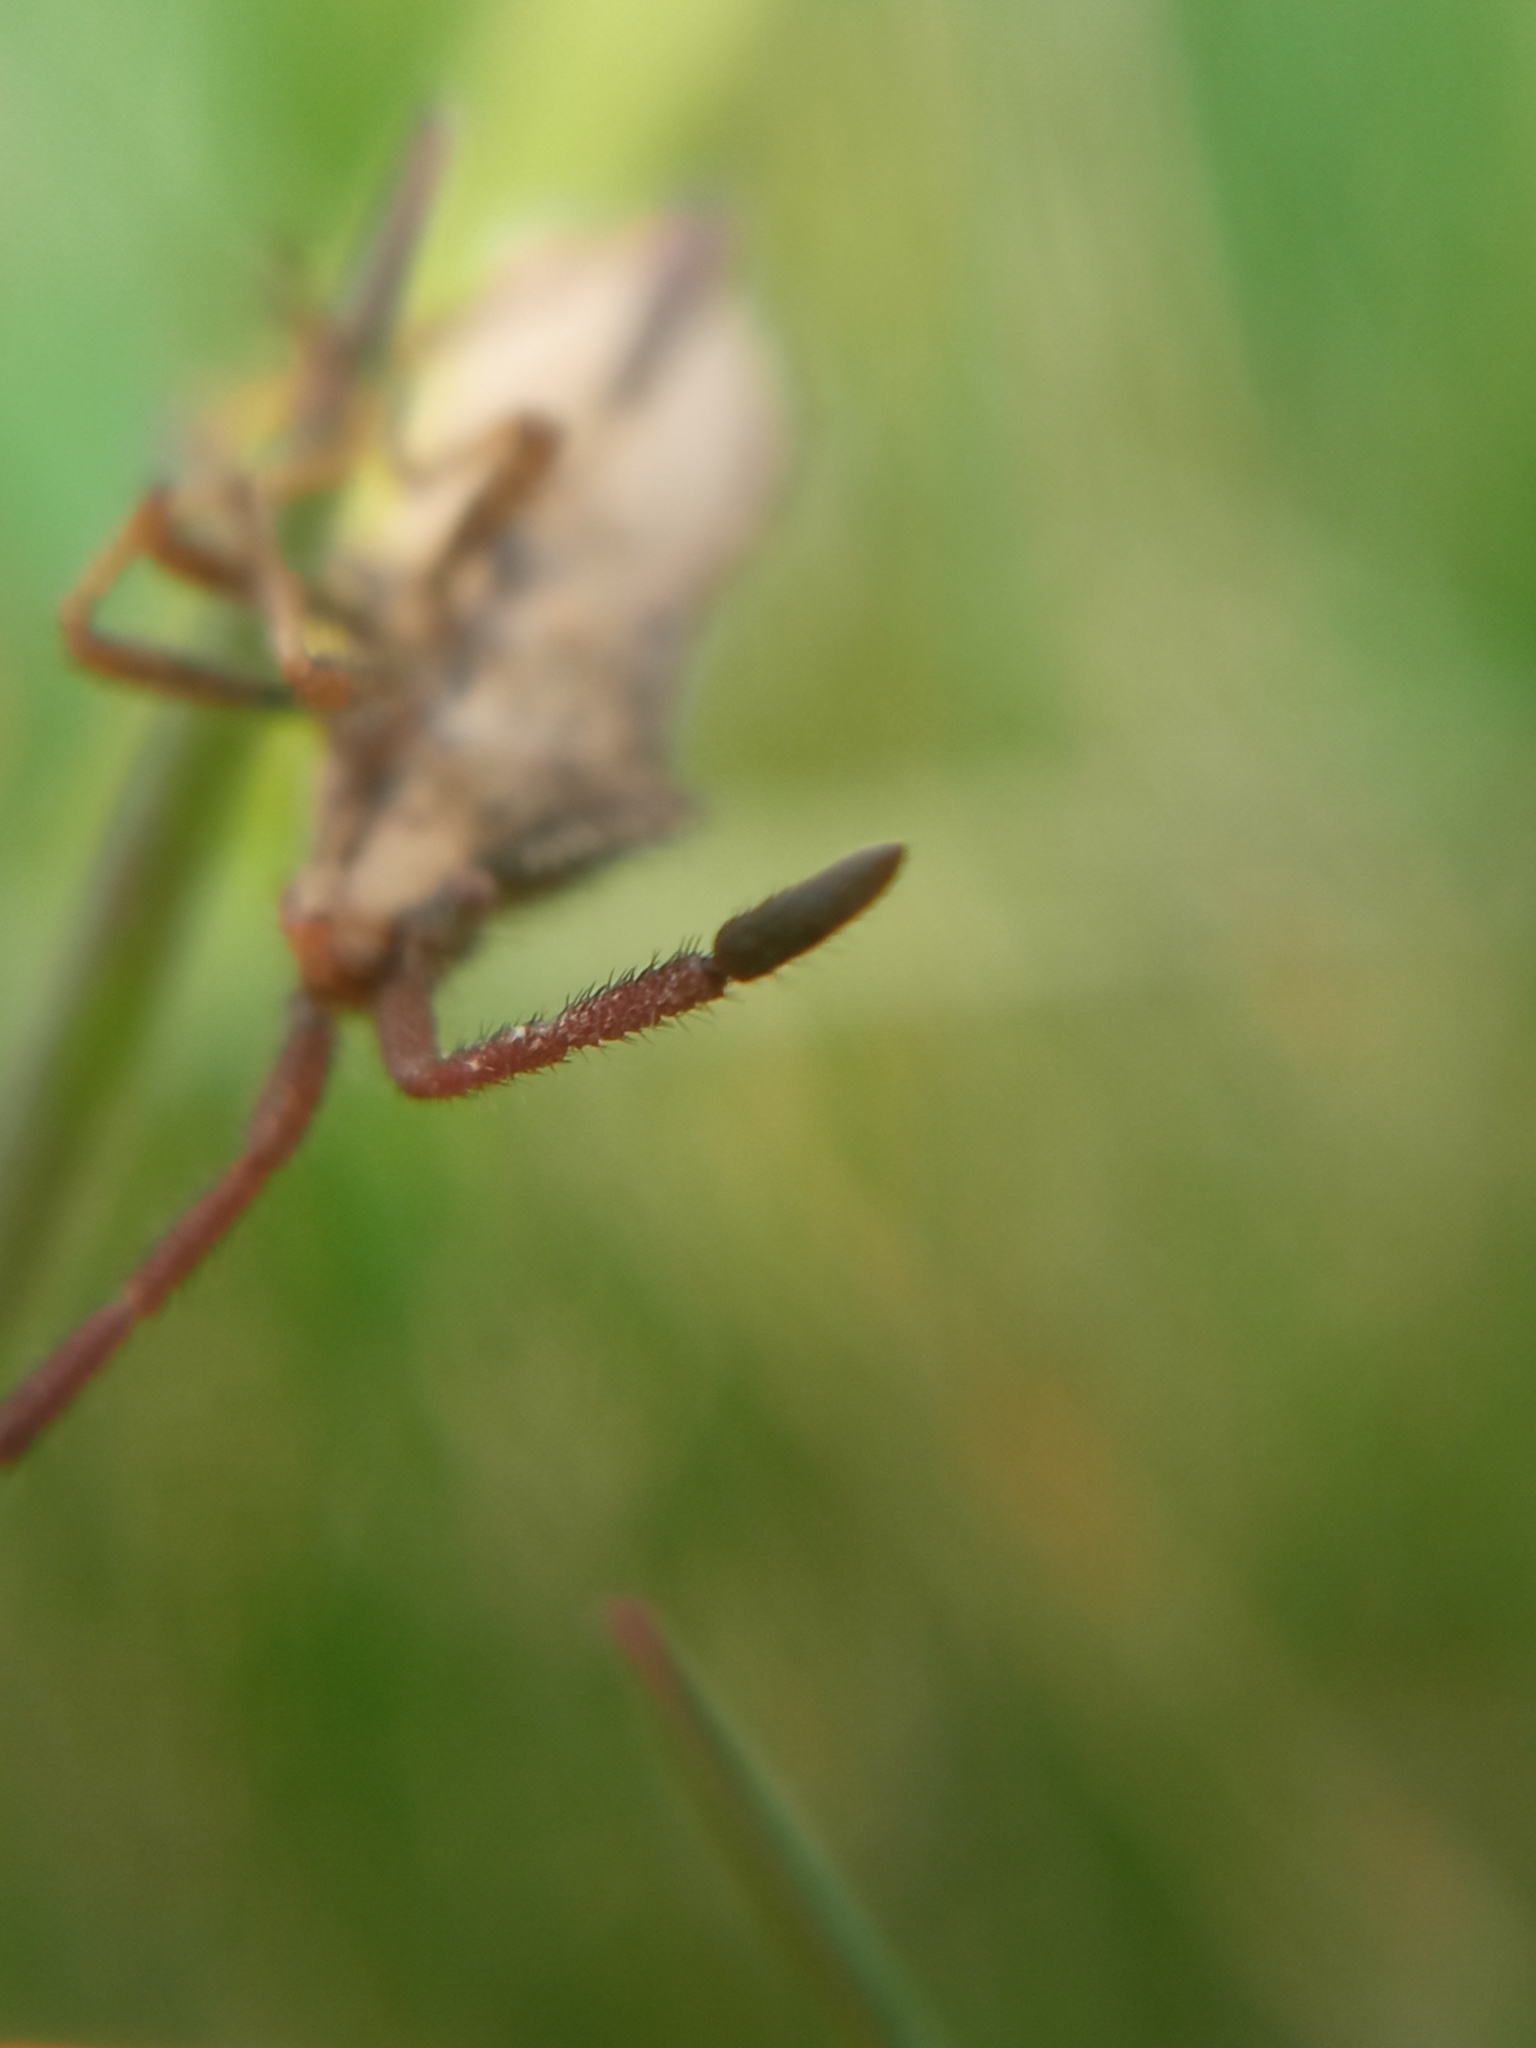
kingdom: Animalia
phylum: Arthropoda
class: Insecta
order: Hemiptera
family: Coreidae
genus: Coriomeris
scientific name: Coriomeris denticulatus
